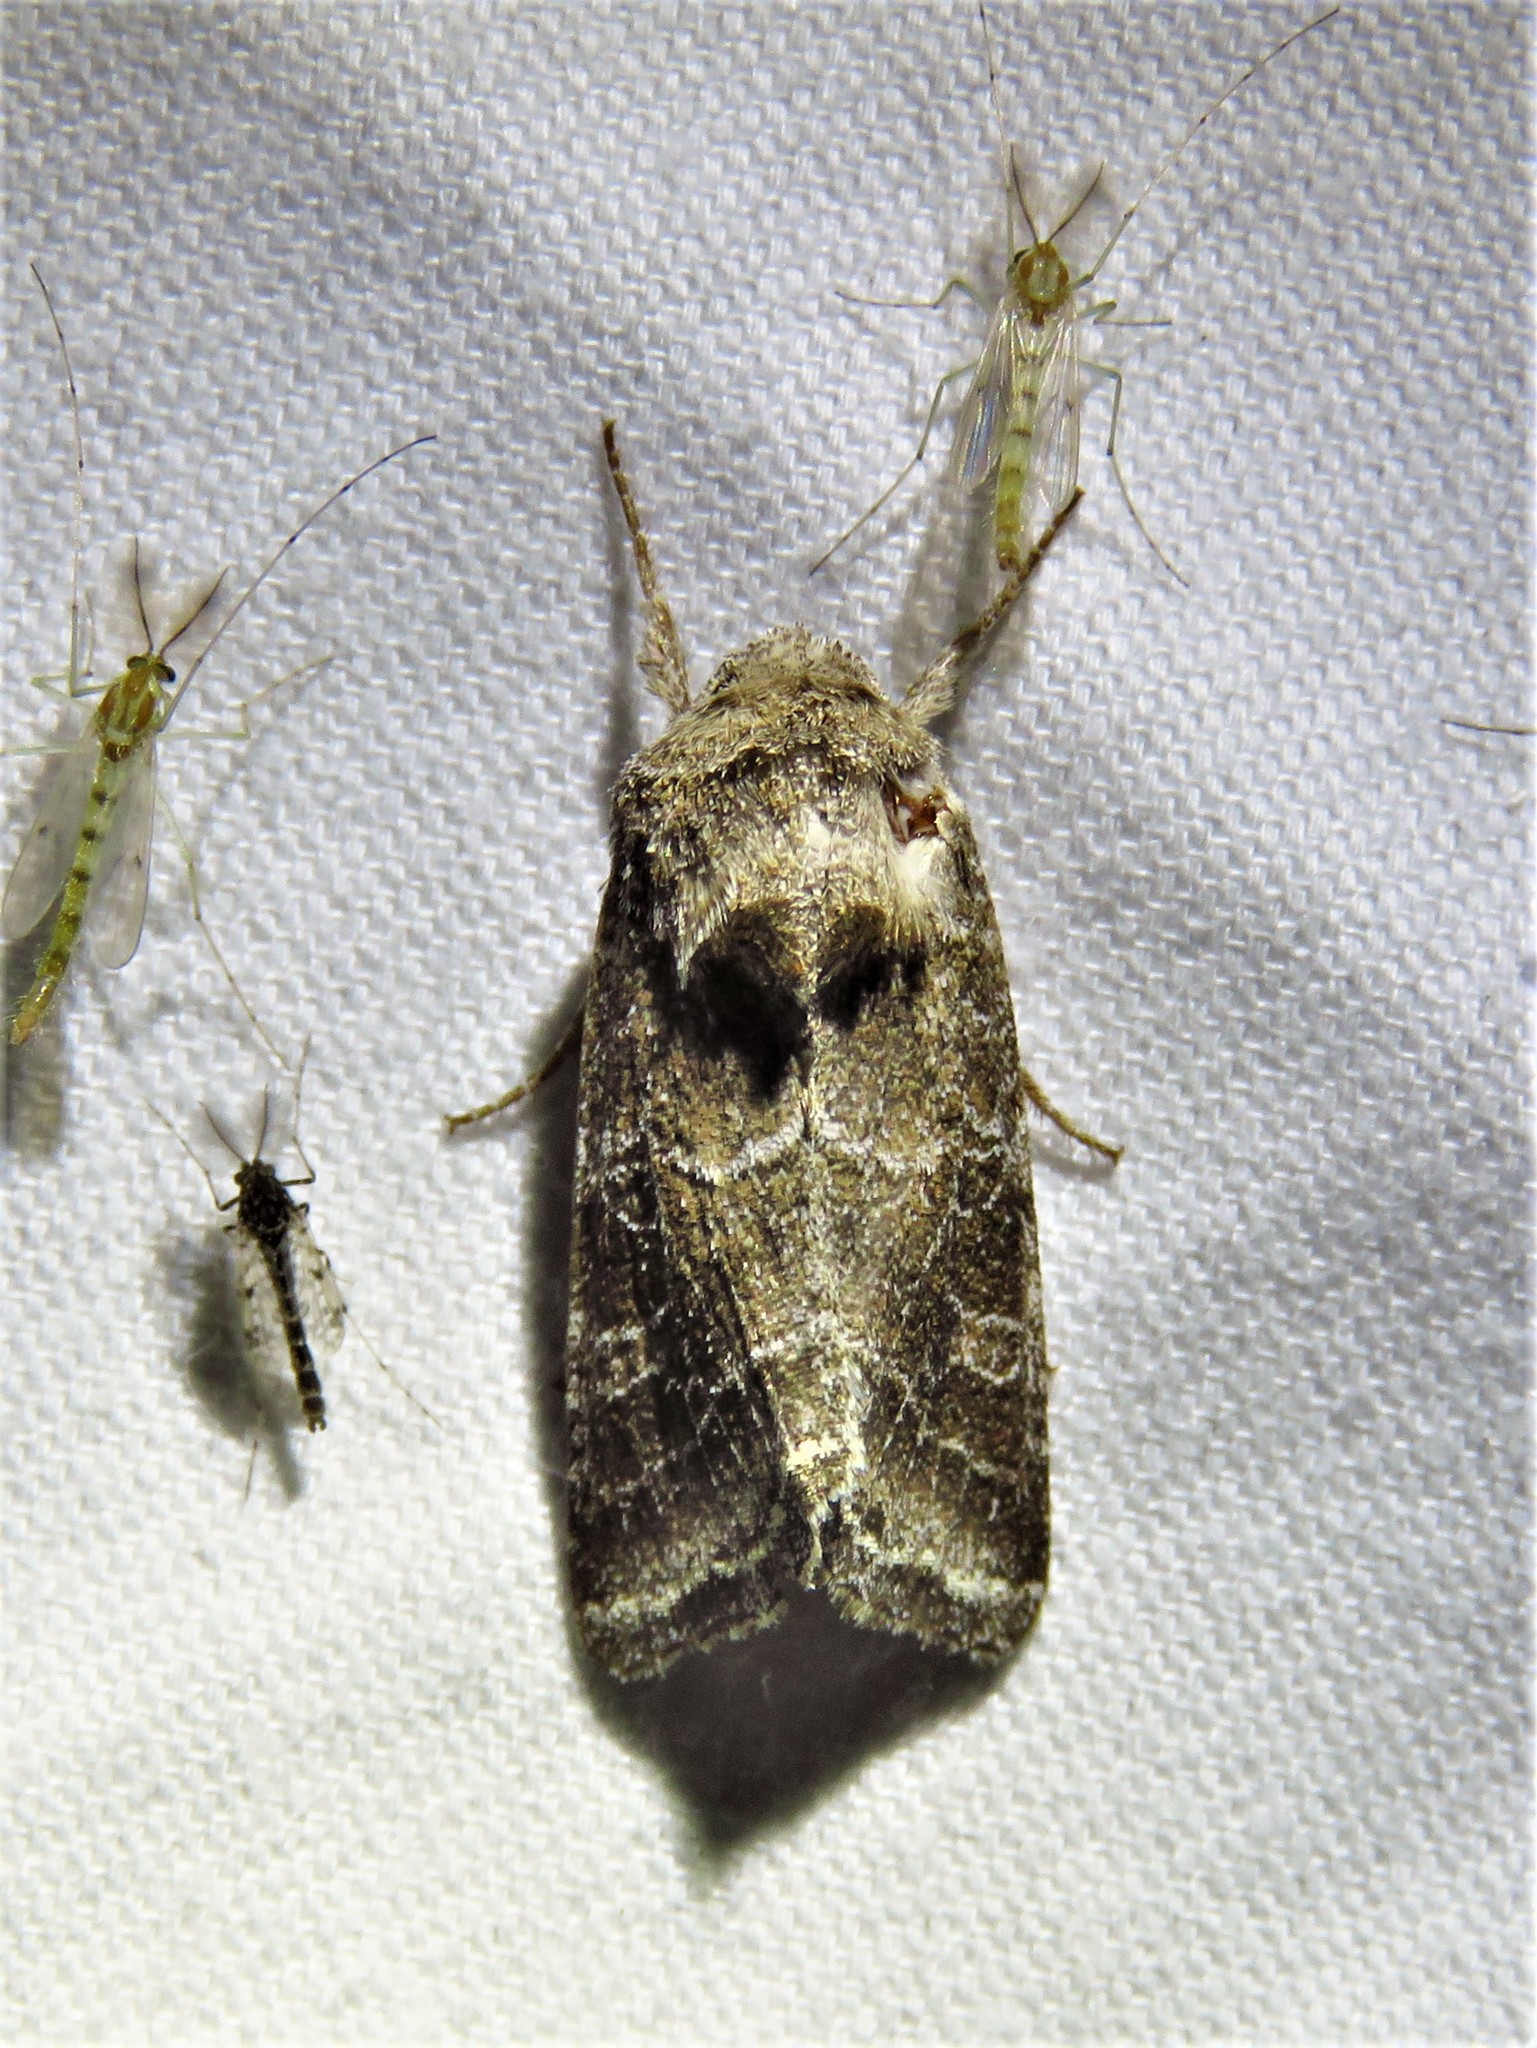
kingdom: Animalia
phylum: Arthropoda
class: Insecta
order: Lepidoptera
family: Noctuidae
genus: Lacinipolia
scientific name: Lacinipolia erecta
